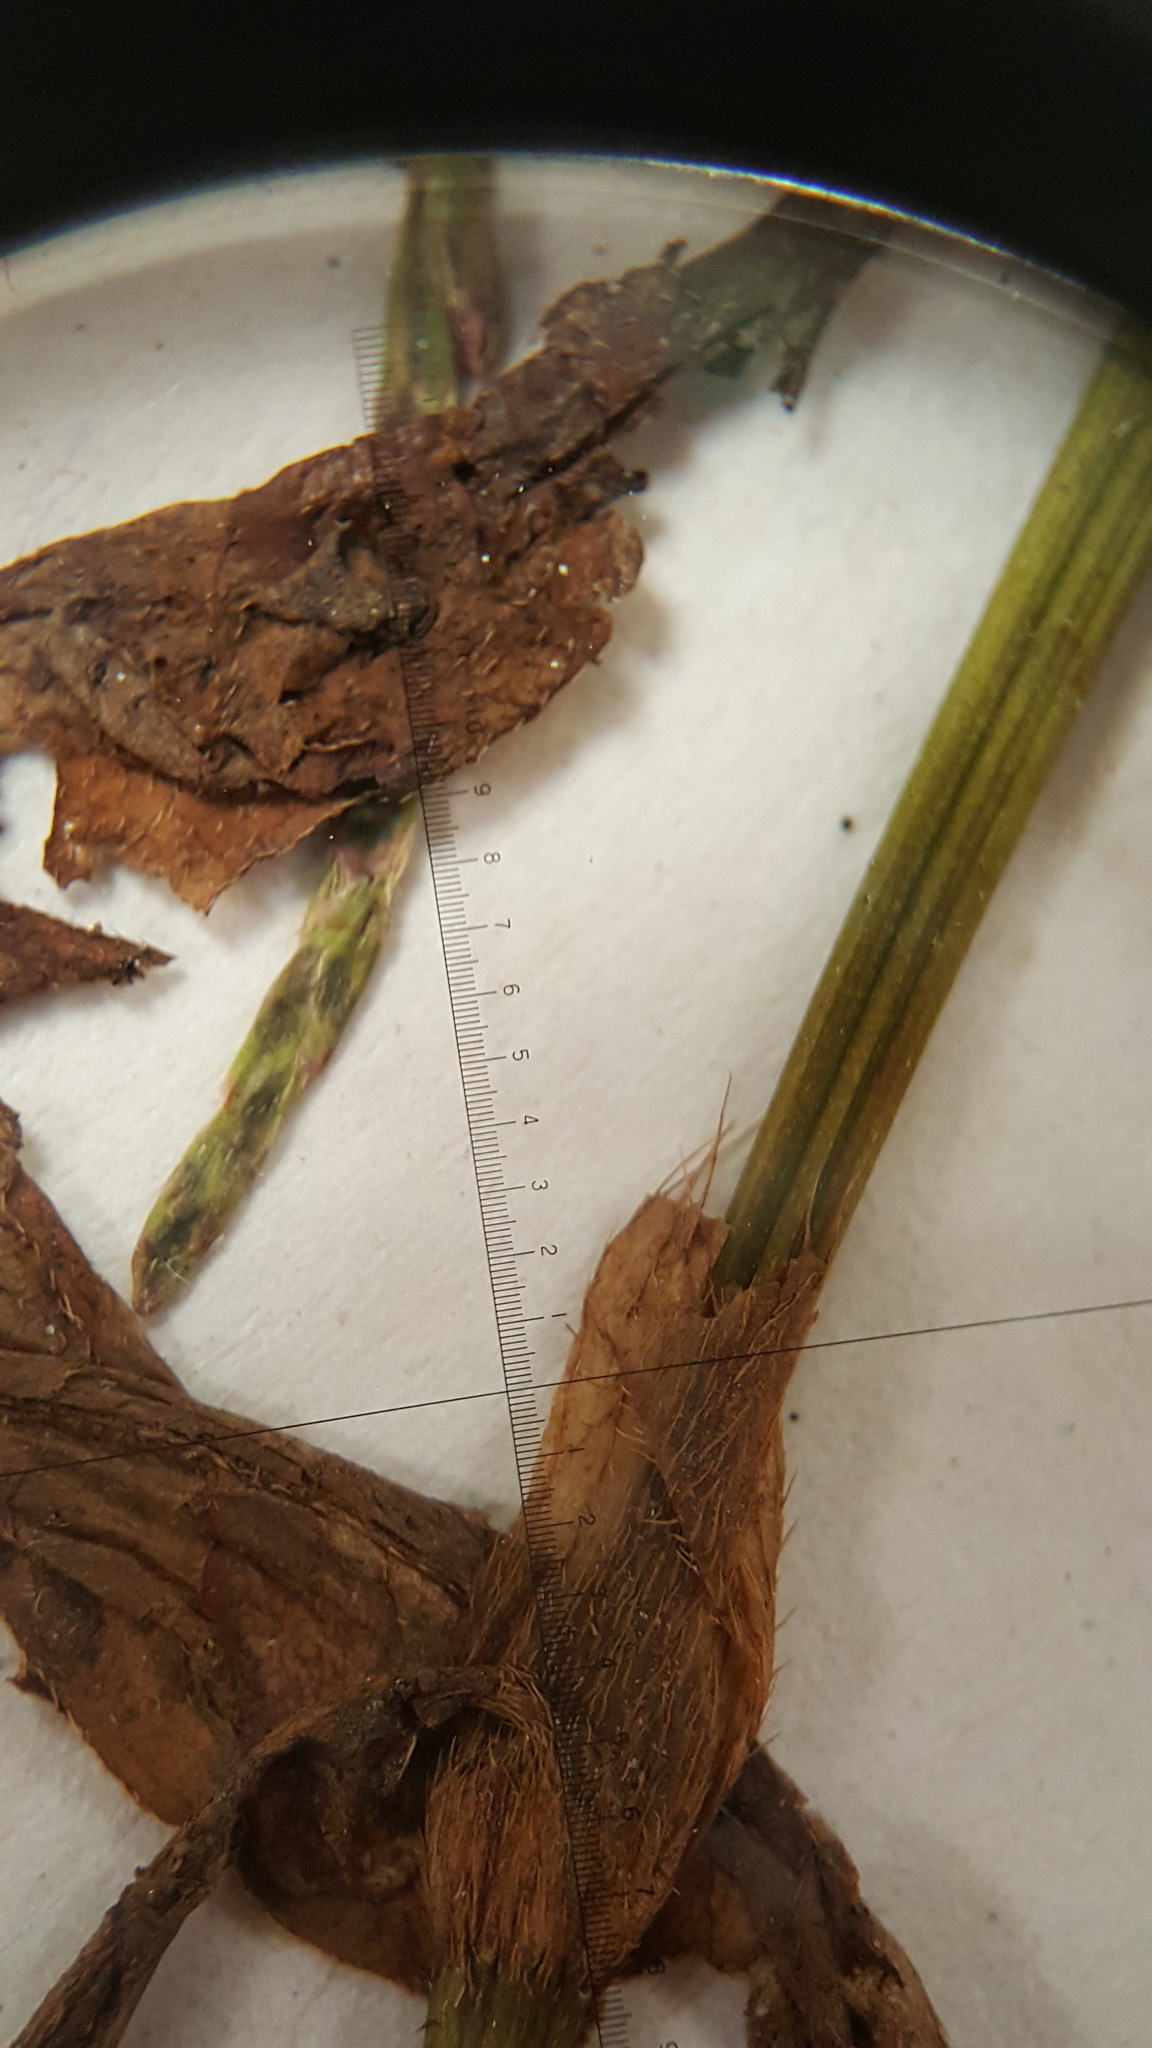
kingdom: Plantae
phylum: Tracheophyta
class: Magnoliopsida
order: Caryophyllales
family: Polygonaceae
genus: Persicaria
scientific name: Persicaria hydropiperoides
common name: Swamp smartweed
